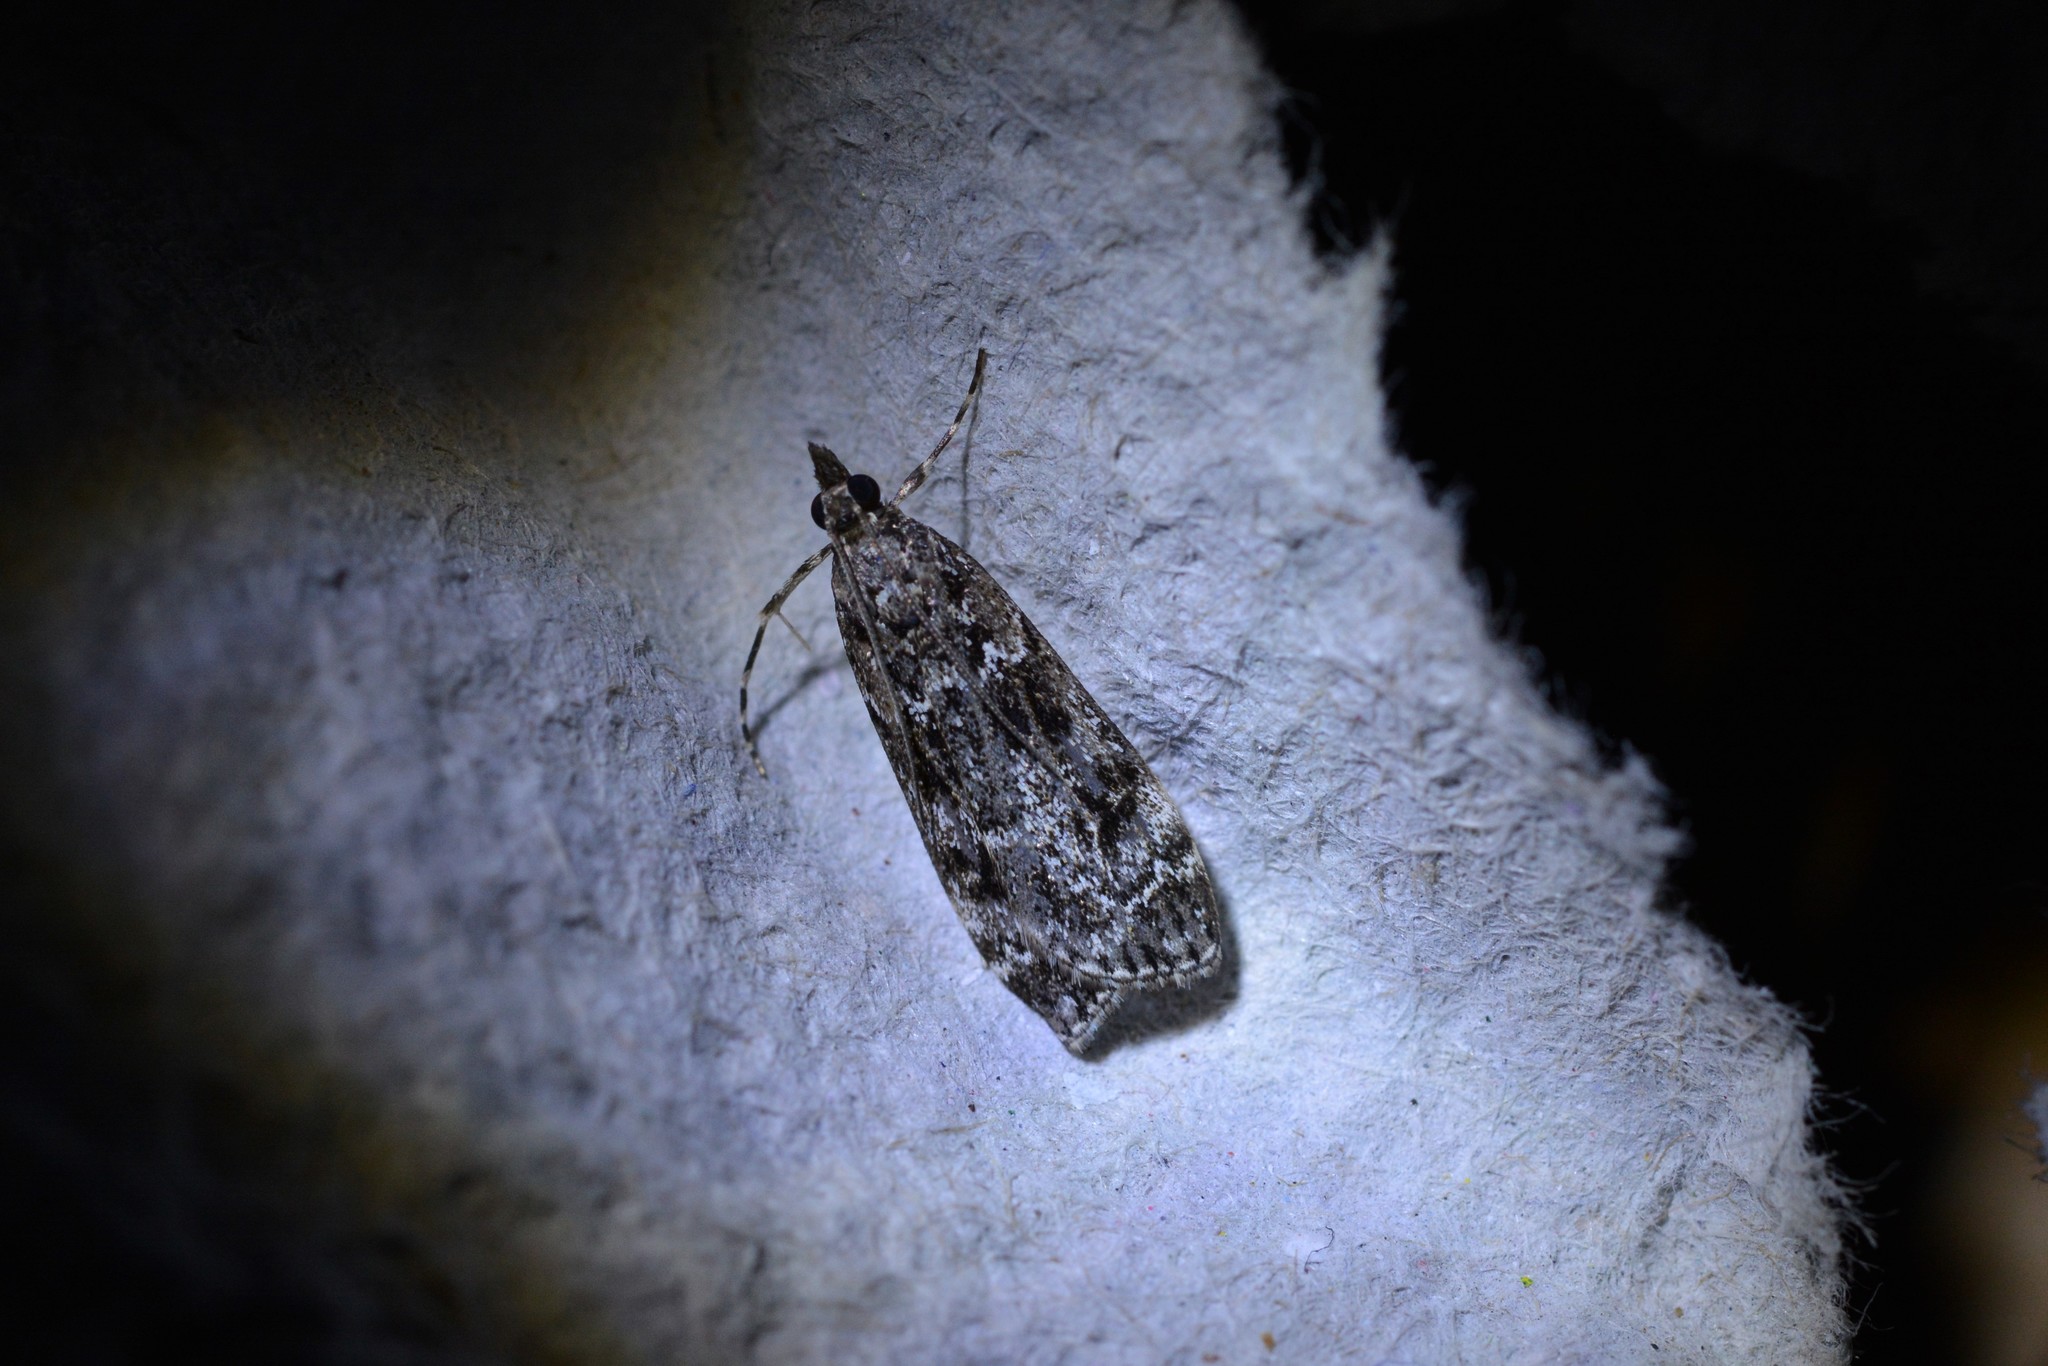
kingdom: Animalia
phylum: Arthropoda
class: Insecta
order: Lepidoptera
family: Crambidae
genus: Eudonia
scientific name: Eudonia philerga
